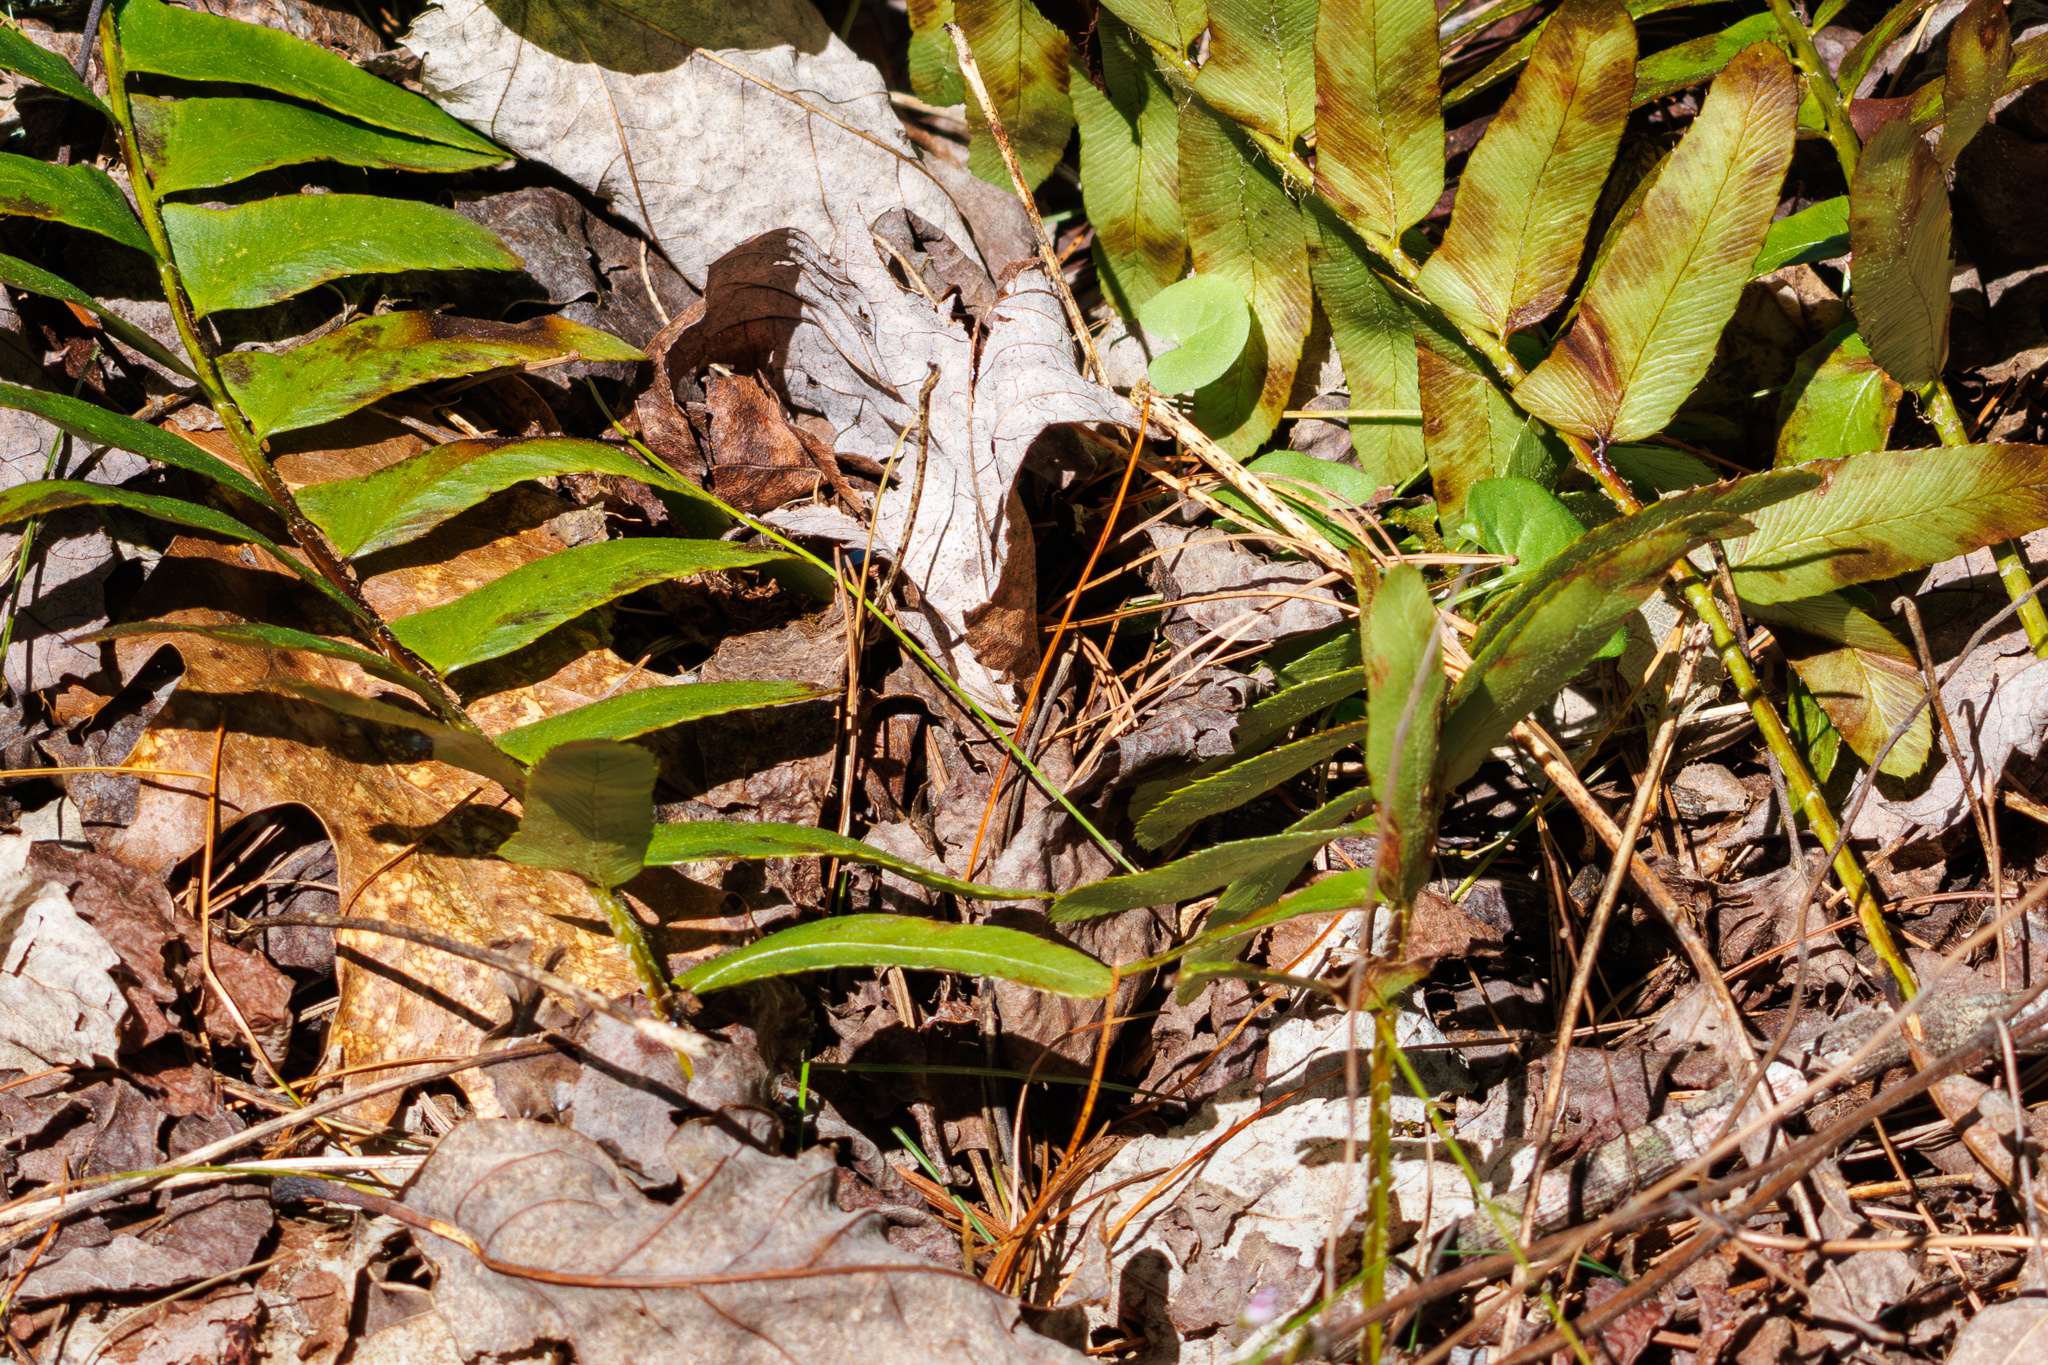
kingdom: Plantae
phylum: Tracheophyta
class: Polypodiopsida
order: Polypodiales
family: Dryopteridaceae
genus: Polystichum
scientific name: Polystichum acrostichoides
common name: Christmas fern
